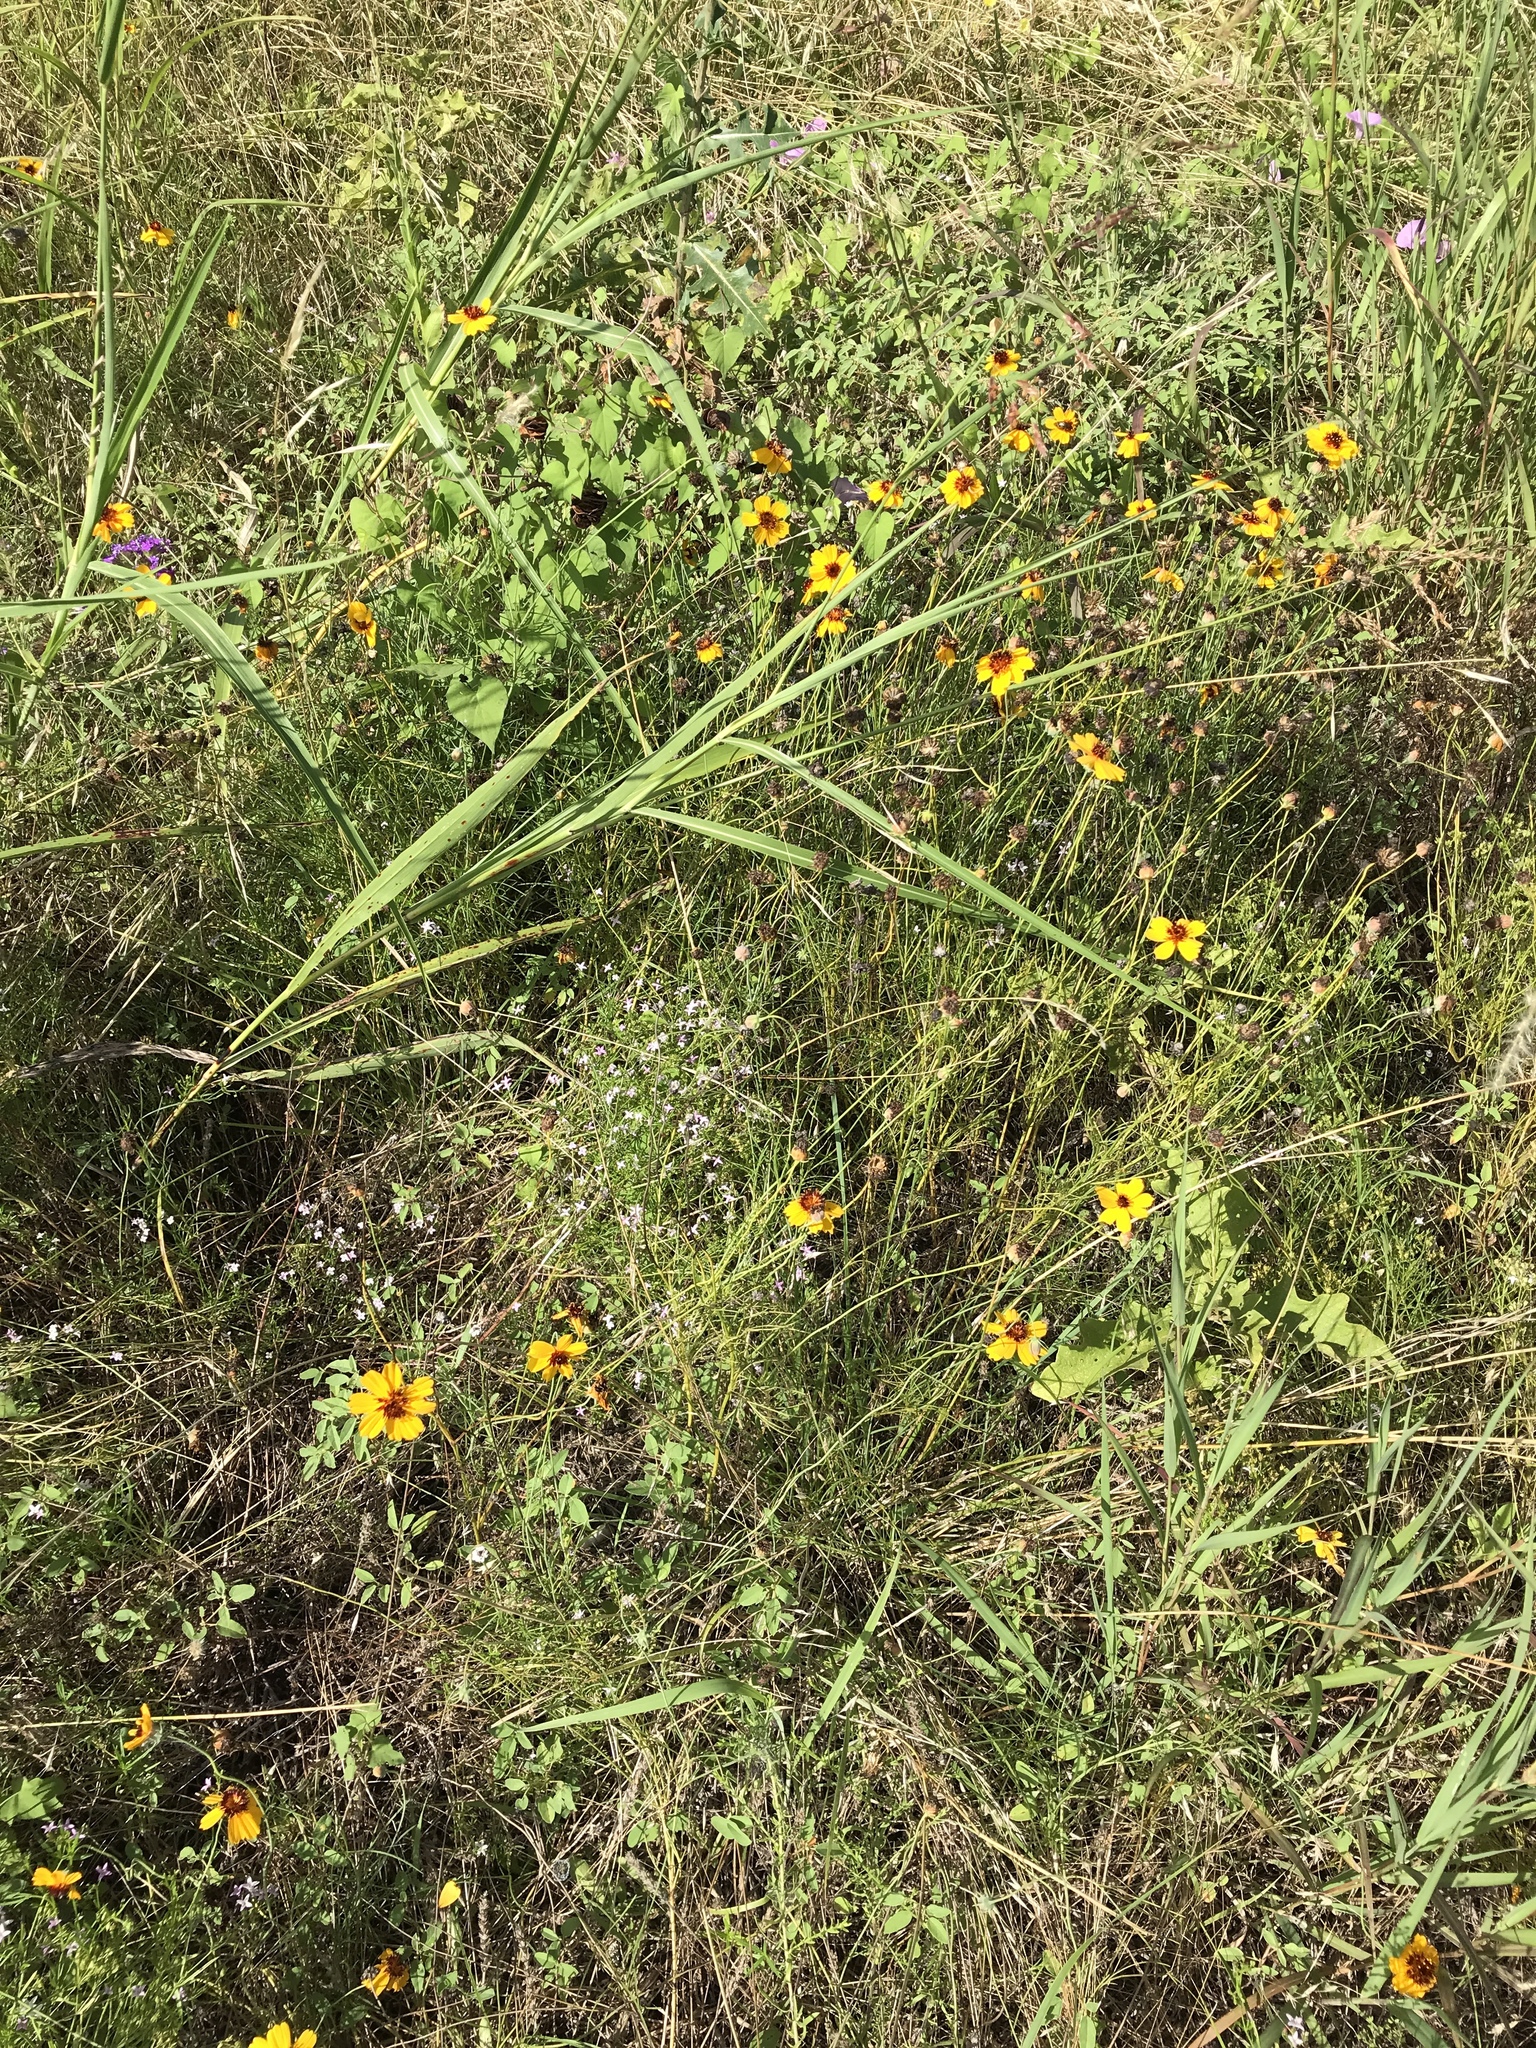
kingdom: Plantae
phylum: Tracheophyta
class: Magnoliopsida
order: Asterales
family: Asteraceae
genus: Thelesperma
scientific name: Thelesperma filifolium
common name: Stiff greenthread
